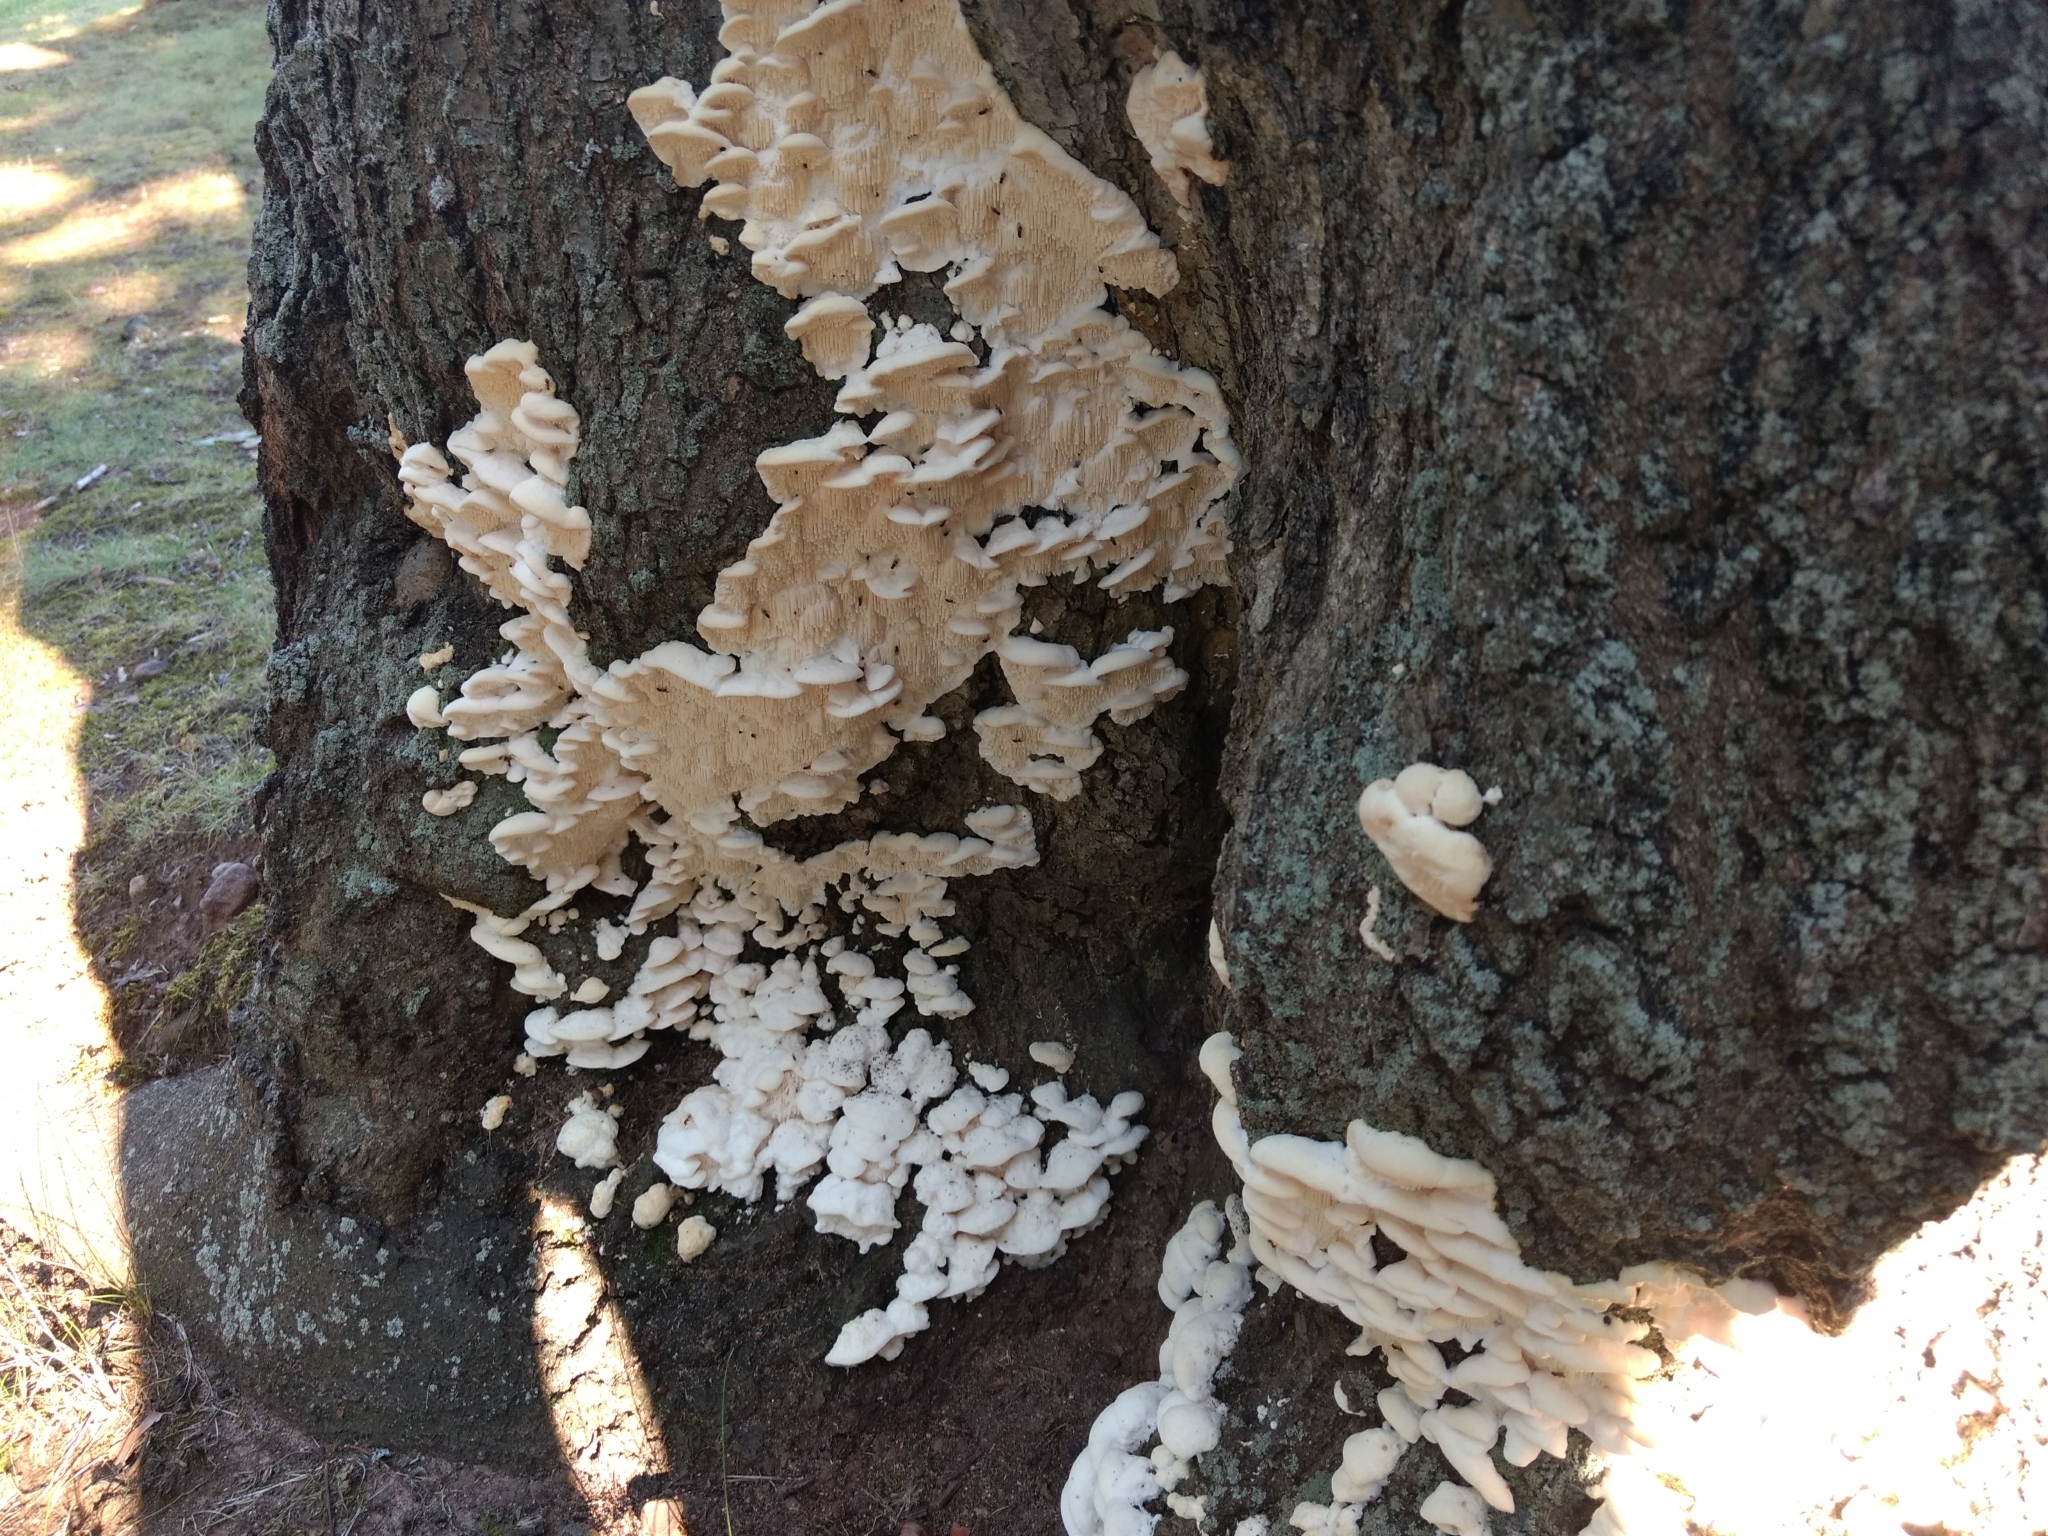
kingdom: Fungi
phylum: Basidiomycota
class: Agaricomycetes
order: Polyporales
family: Meruliaceae
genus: Irpiciporus
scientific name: Irpiciporus pachyodon
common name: Marshmallow polypore
